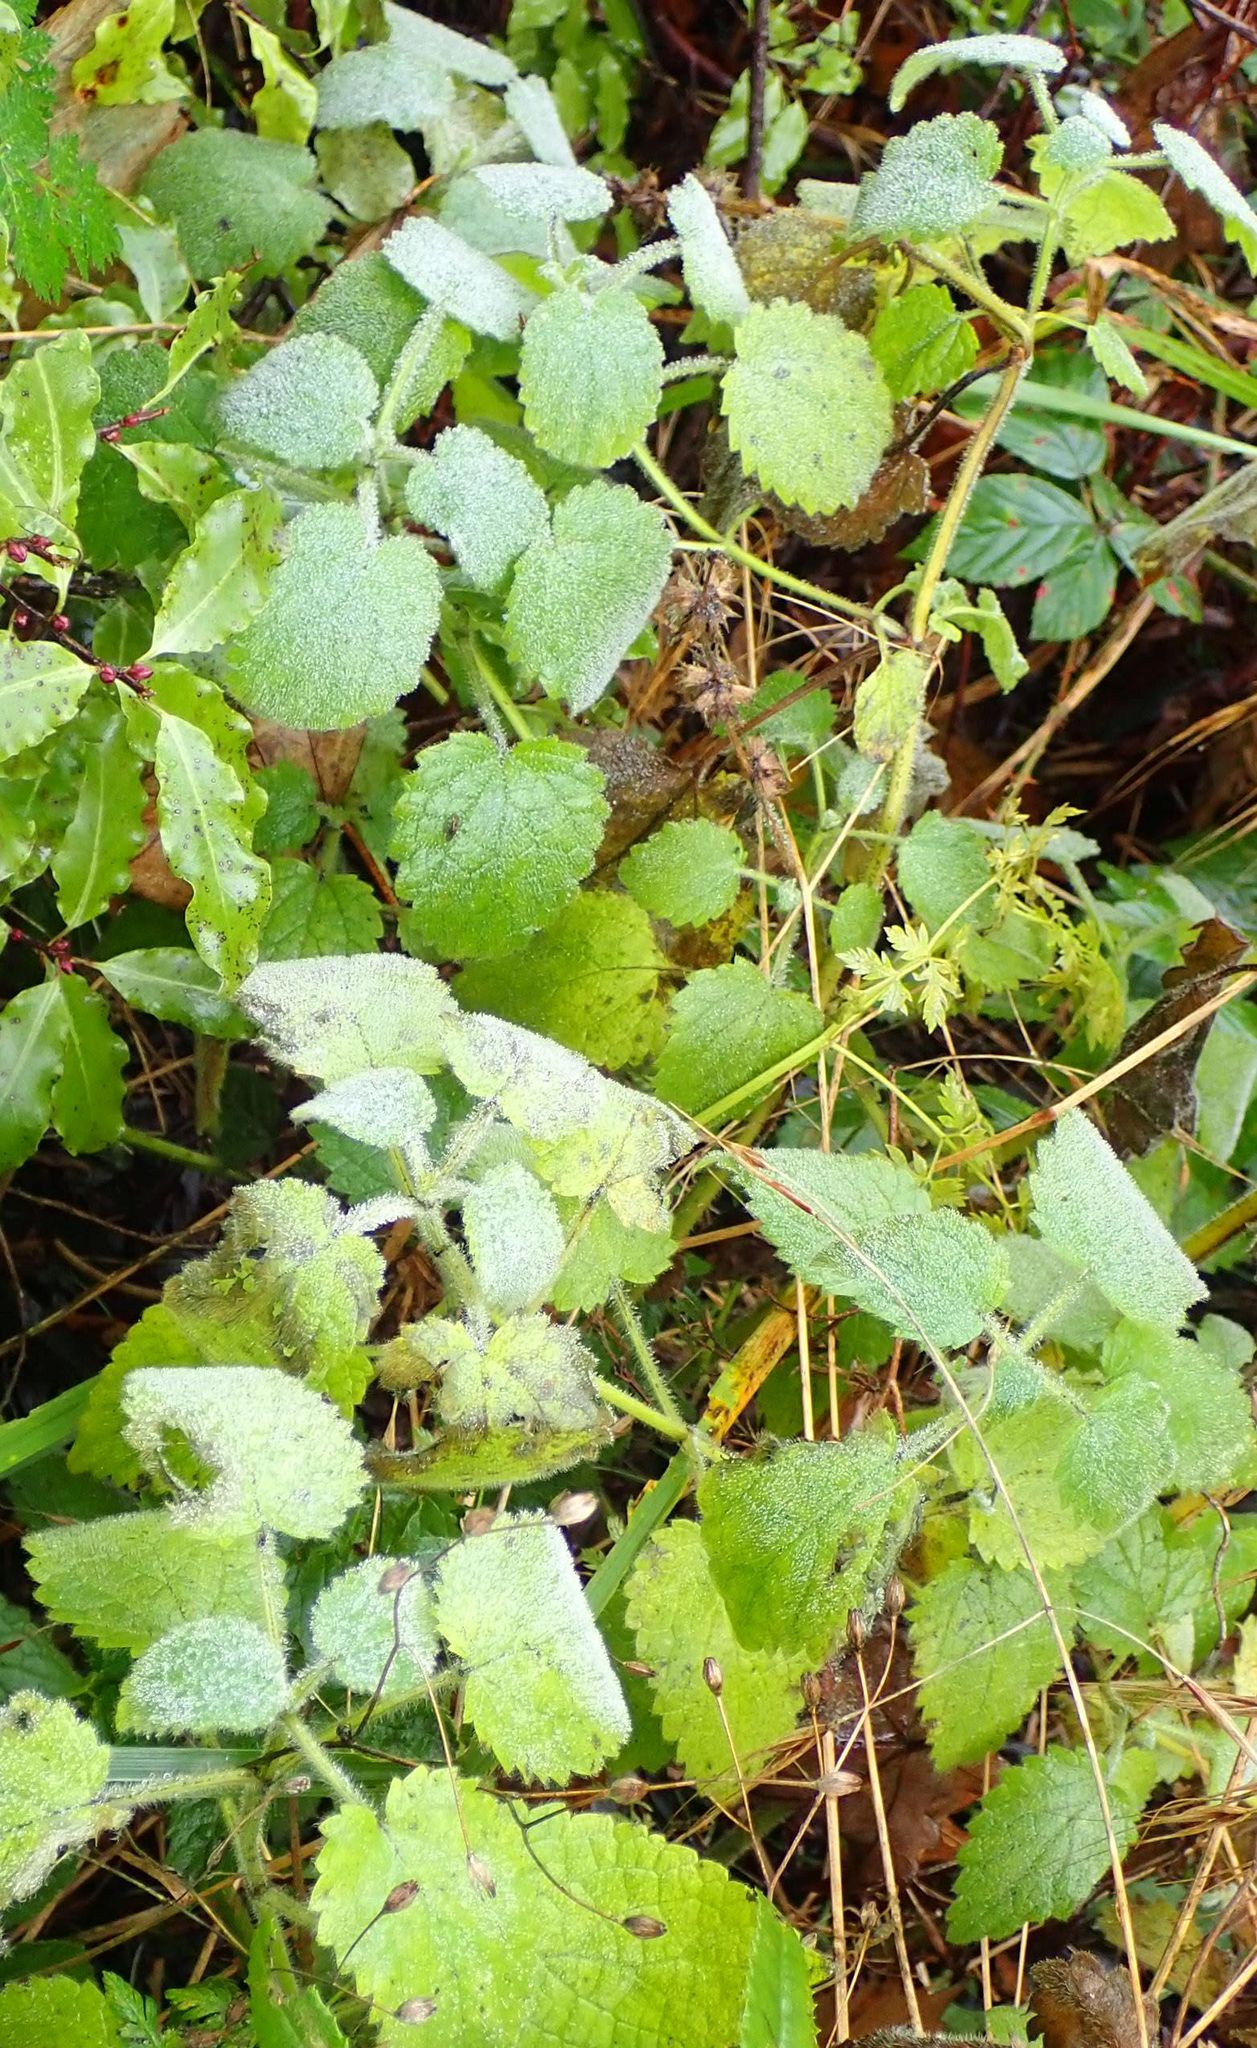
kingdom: Plantae
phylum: Tracheophyta
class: Magnoliopsida
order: Lamiales
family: Lamiaceae
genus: Stachys
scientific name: Stachys sylvatica
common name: Hedge woundwort
